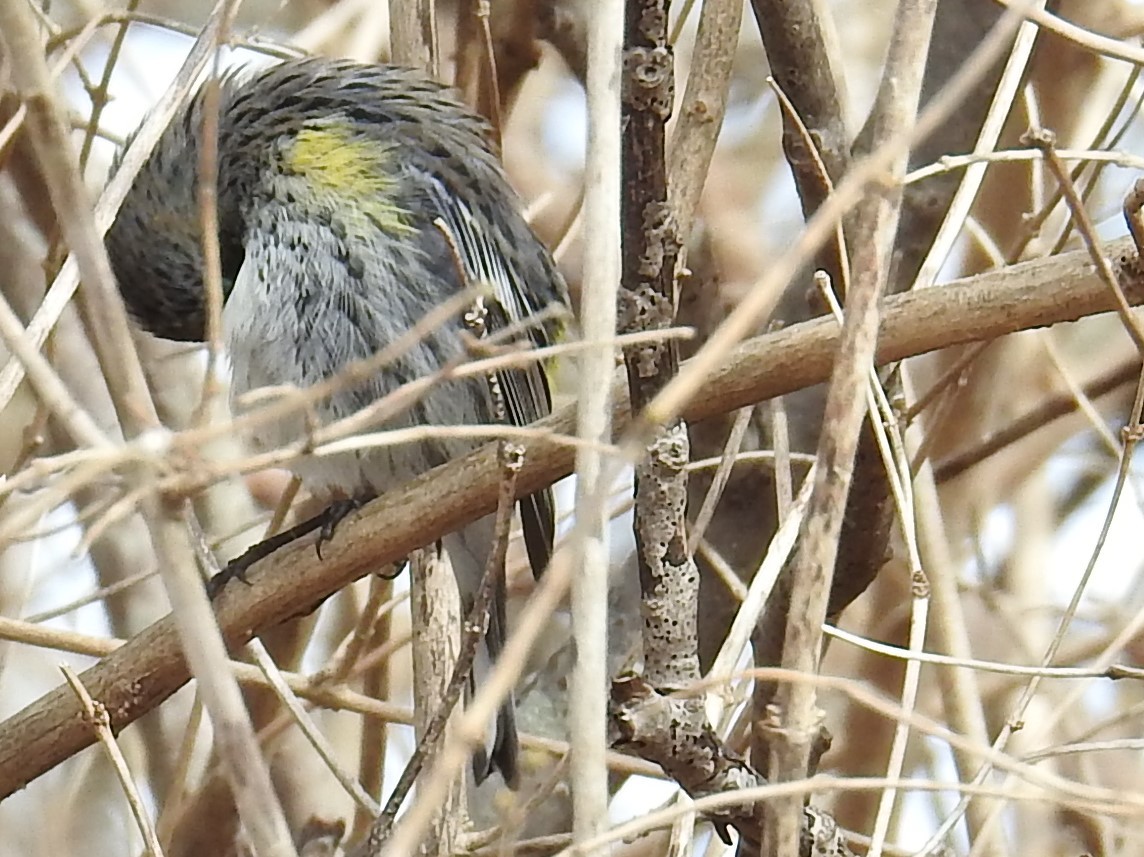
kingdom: Animalia
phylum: Chordata
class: Aves
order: Passeriformes
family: Parulidae
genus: Setophaga
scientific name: Setophaga coronata
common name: Myrtle warbler
